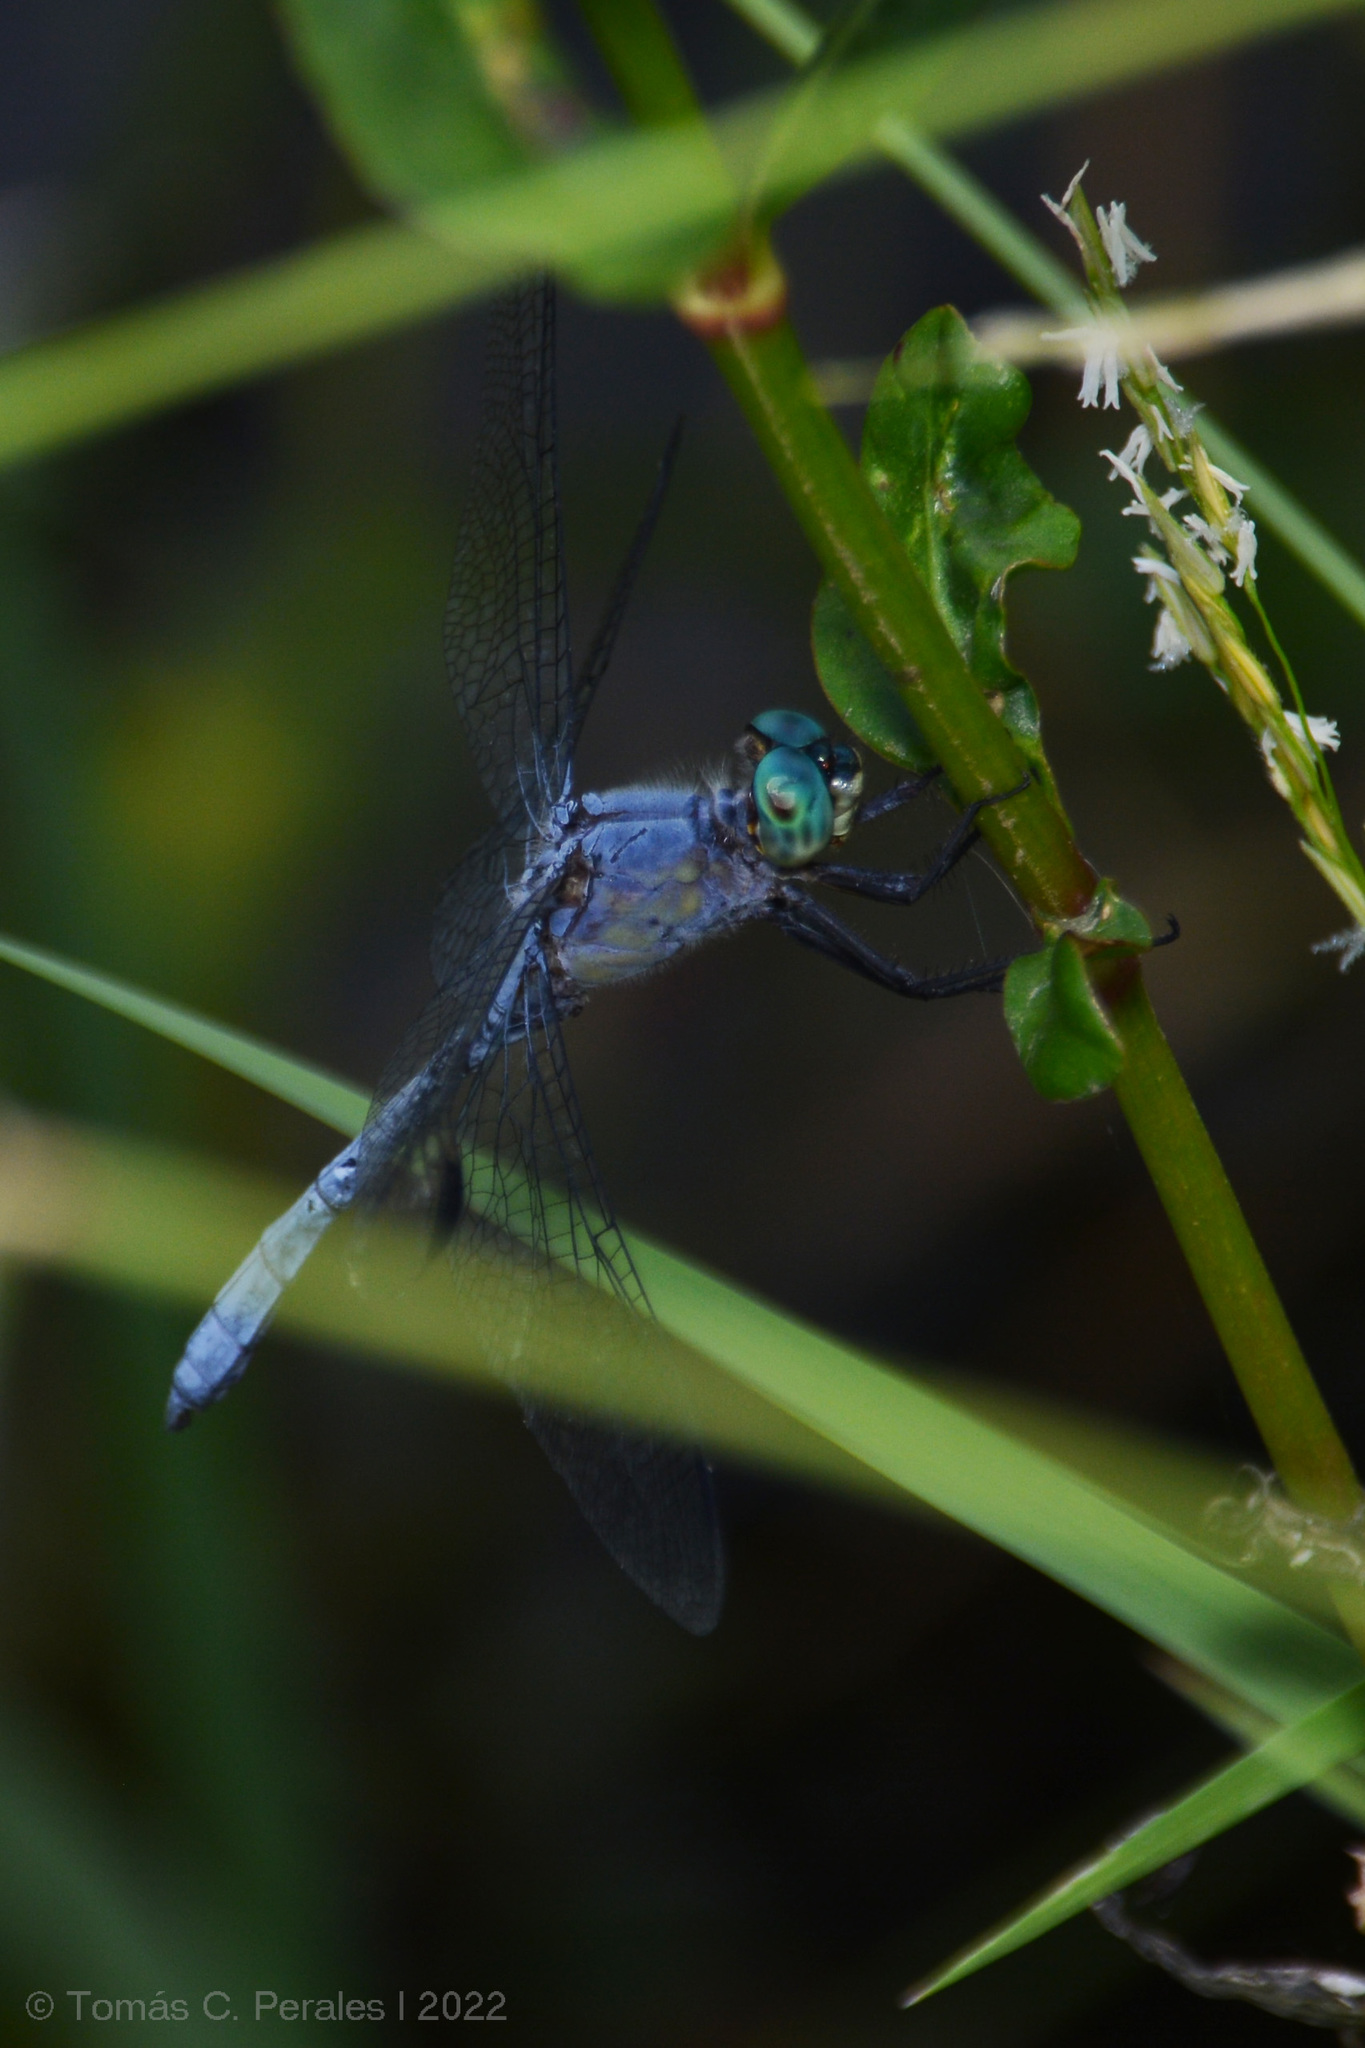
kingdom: Animalia
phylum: Arthropoda
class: Insecta
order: Odonata
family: Libellulidae
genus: Micrathyria
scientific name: Micrathyria ungulata
